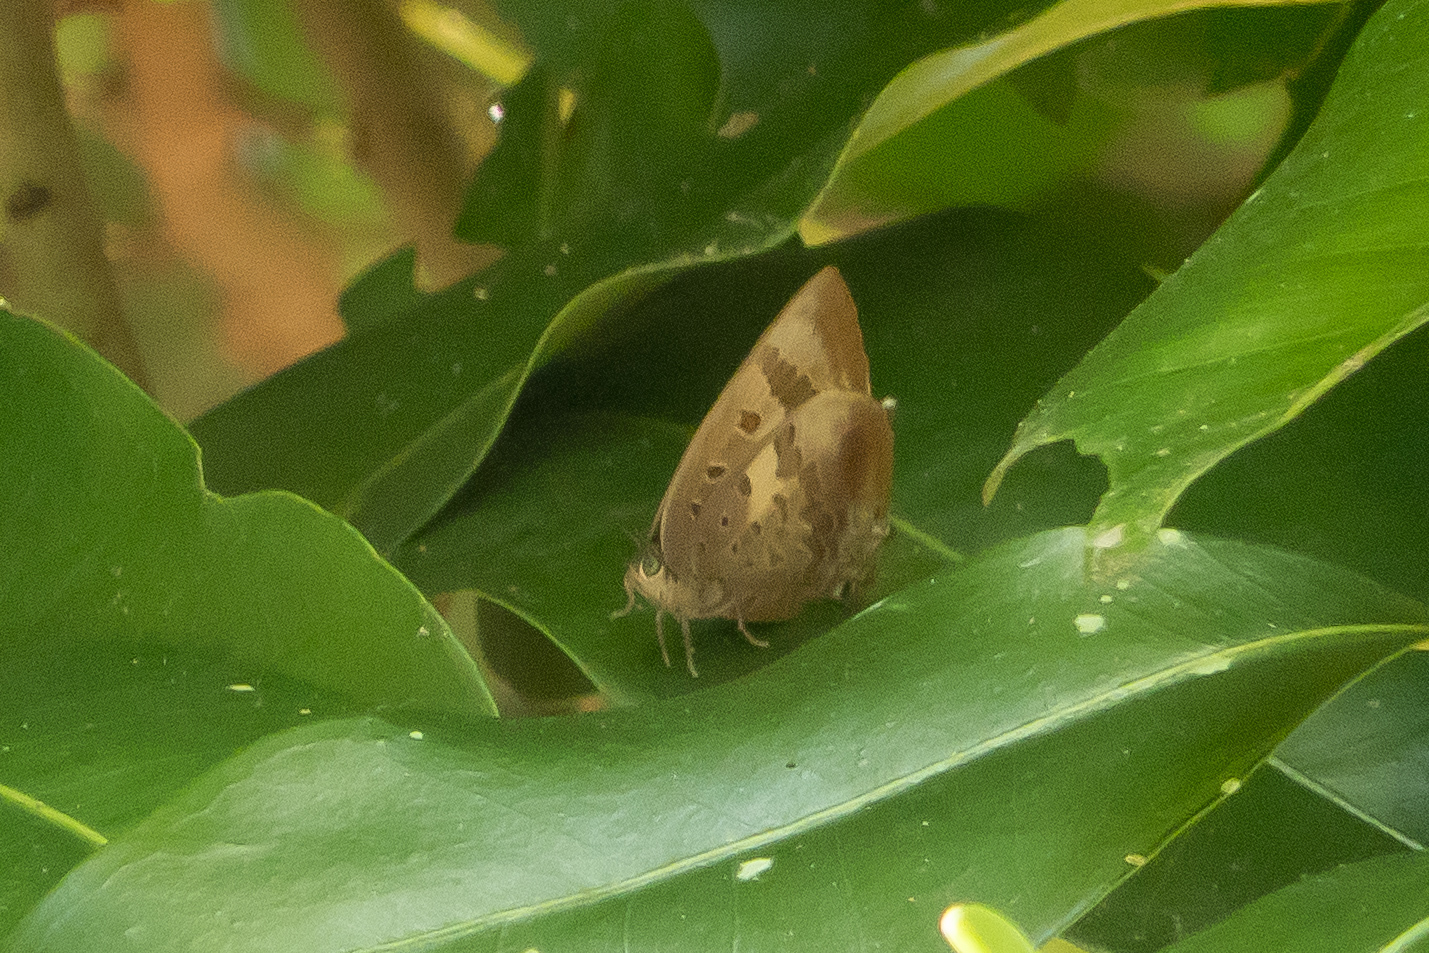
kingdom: Animalia
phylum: Arthropoda
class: Insecta
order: Lepidoptera
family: Lycaenidae
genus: Arhopala
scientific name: Arhopala madytus
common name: Bright oak-blue
